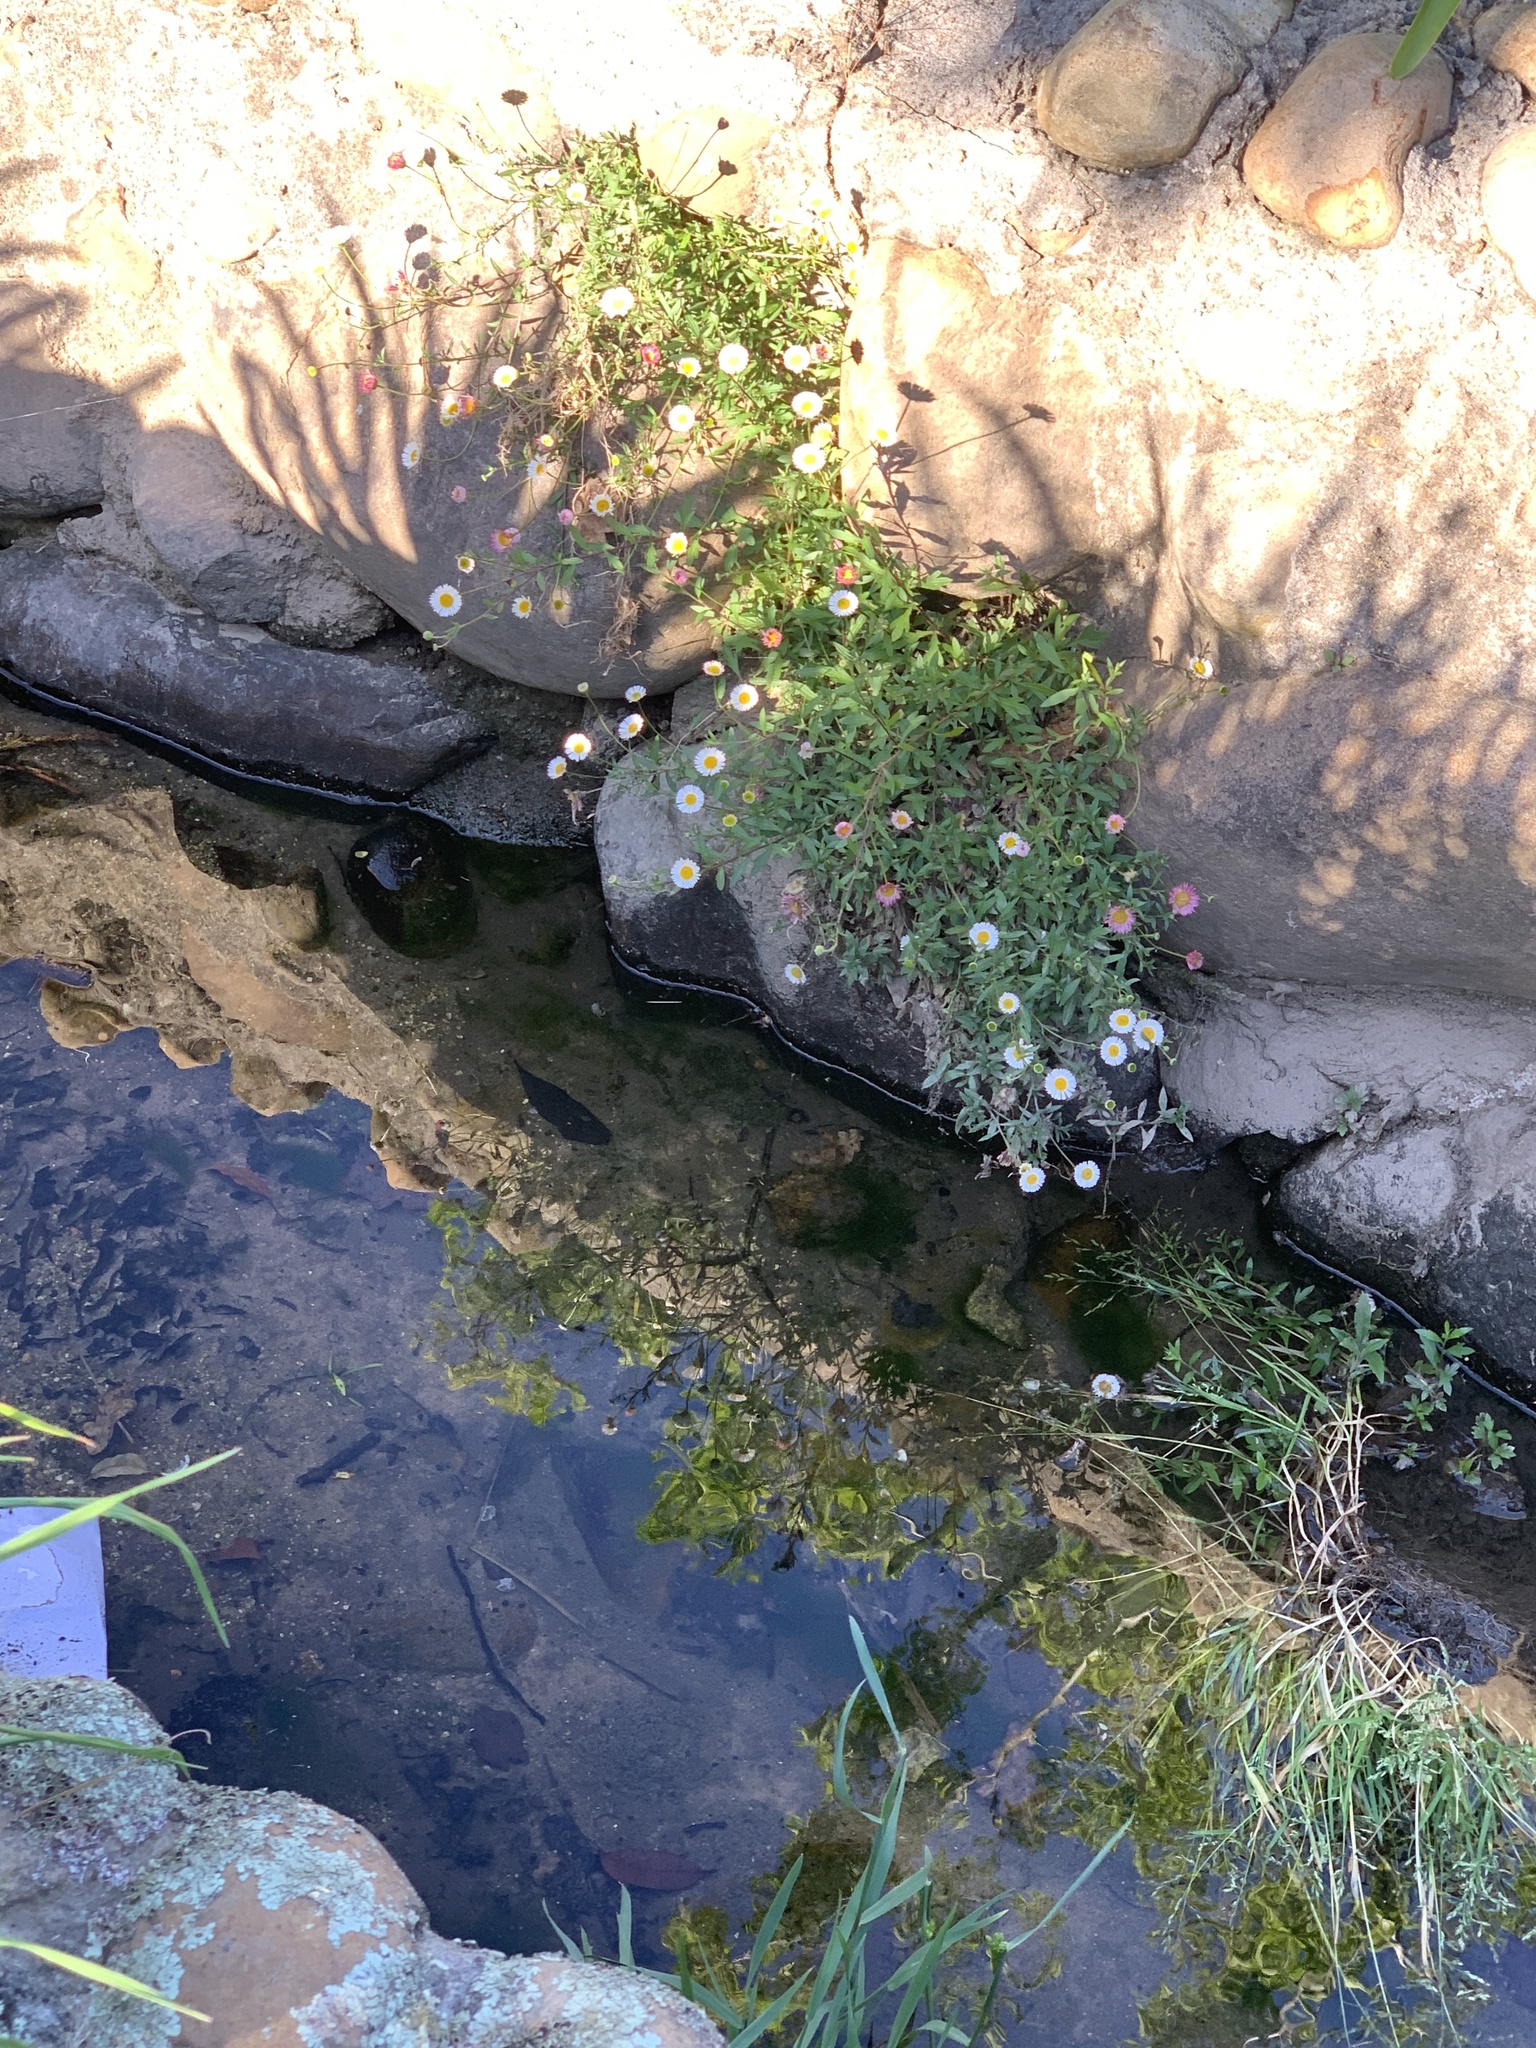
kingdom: Plantae
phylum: Tracheophyta
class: Magnoliopsida
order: Asterales
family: Asteraceae
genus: Erigeron
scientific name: Erigeron karvinskianus
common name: Mexican fleabane
